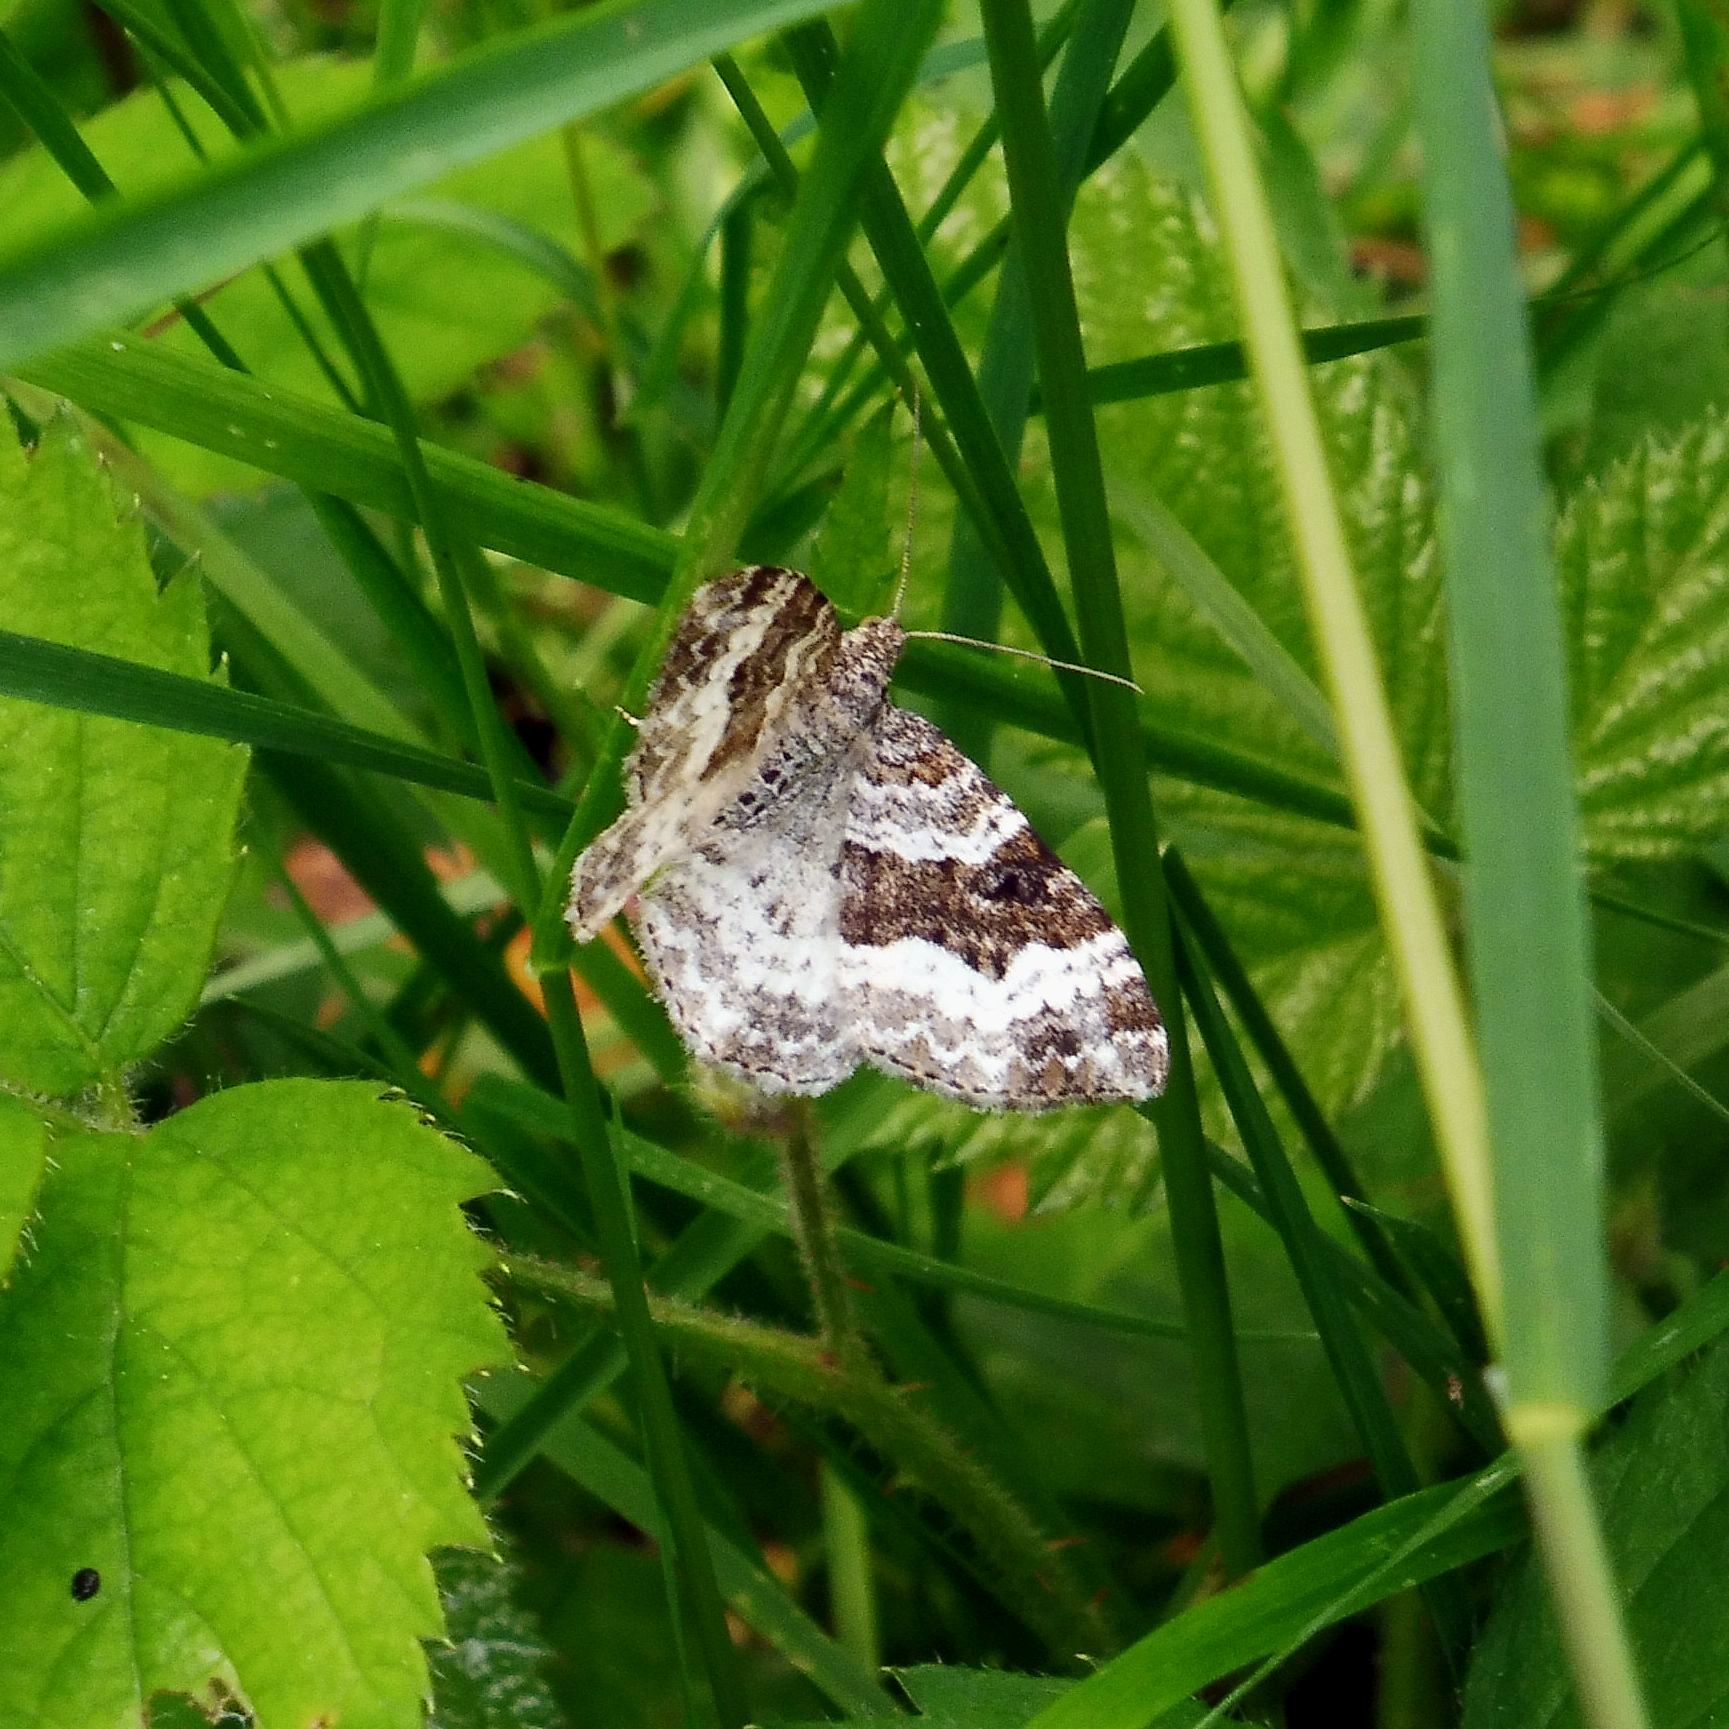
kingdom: Animalia
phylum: Arthropoda
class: Insecta
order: Lepidoptera
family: Geometridae
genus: Epirrhoe
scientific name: Epirrhoe alternata
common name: Common carpet
